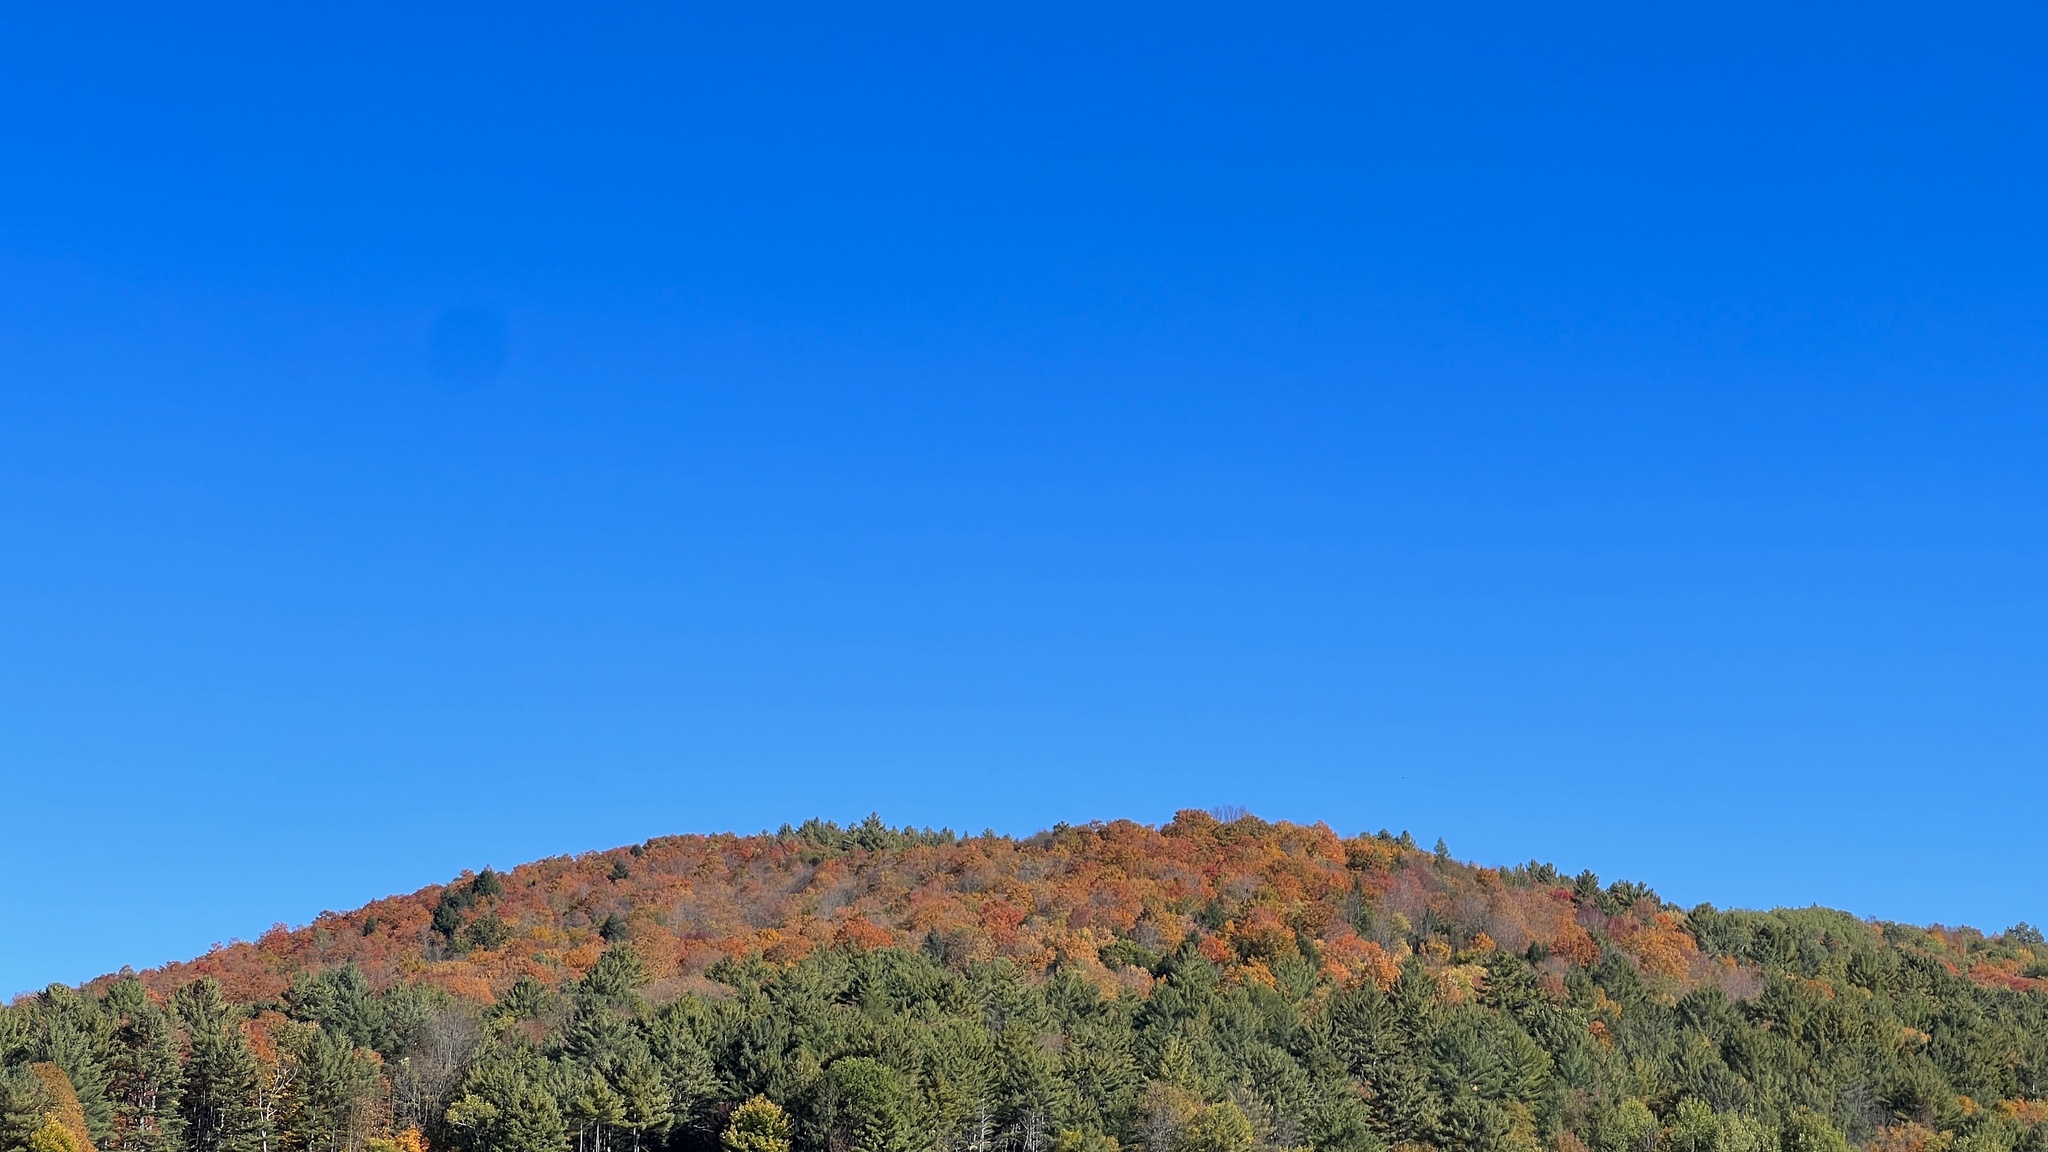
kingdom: Plantae
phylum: Tracheophyta
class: Magnoliopsida
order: Sapindales
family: Sapindaceae
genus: Acer
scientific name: Acer saccharum
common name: Sugar maple
